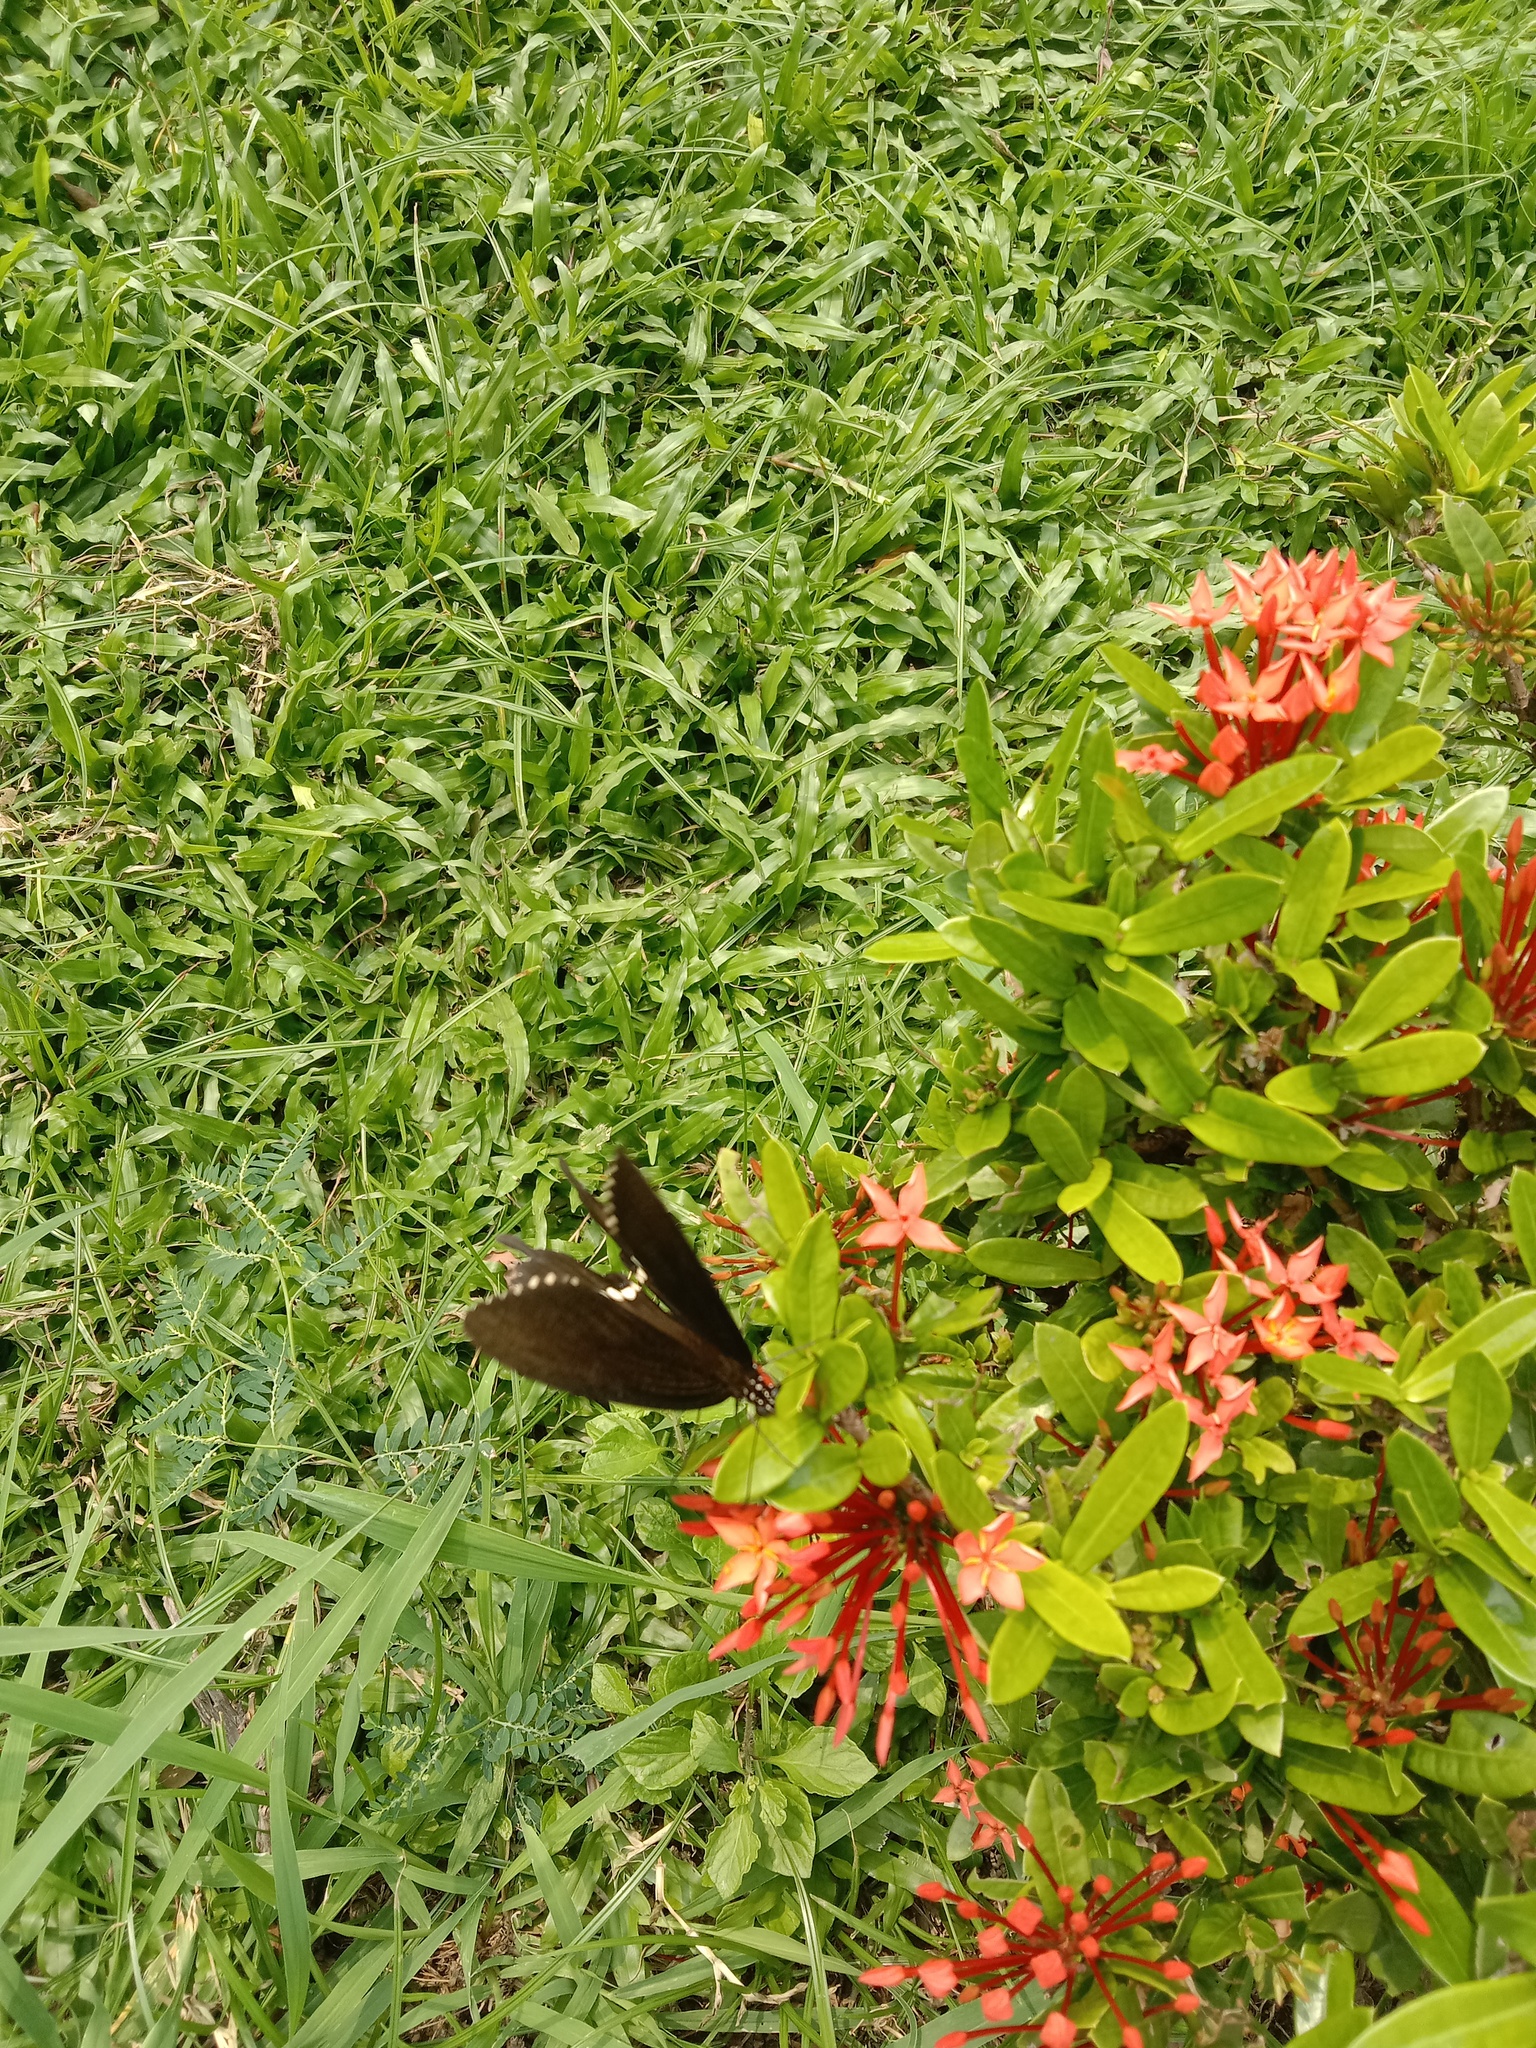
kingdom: Animalia
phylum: Arthropoda
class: Insecta
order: Lepidoptera
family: Papilionidae
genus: Papilio
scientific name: Papilio polytes
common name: Common mormon
